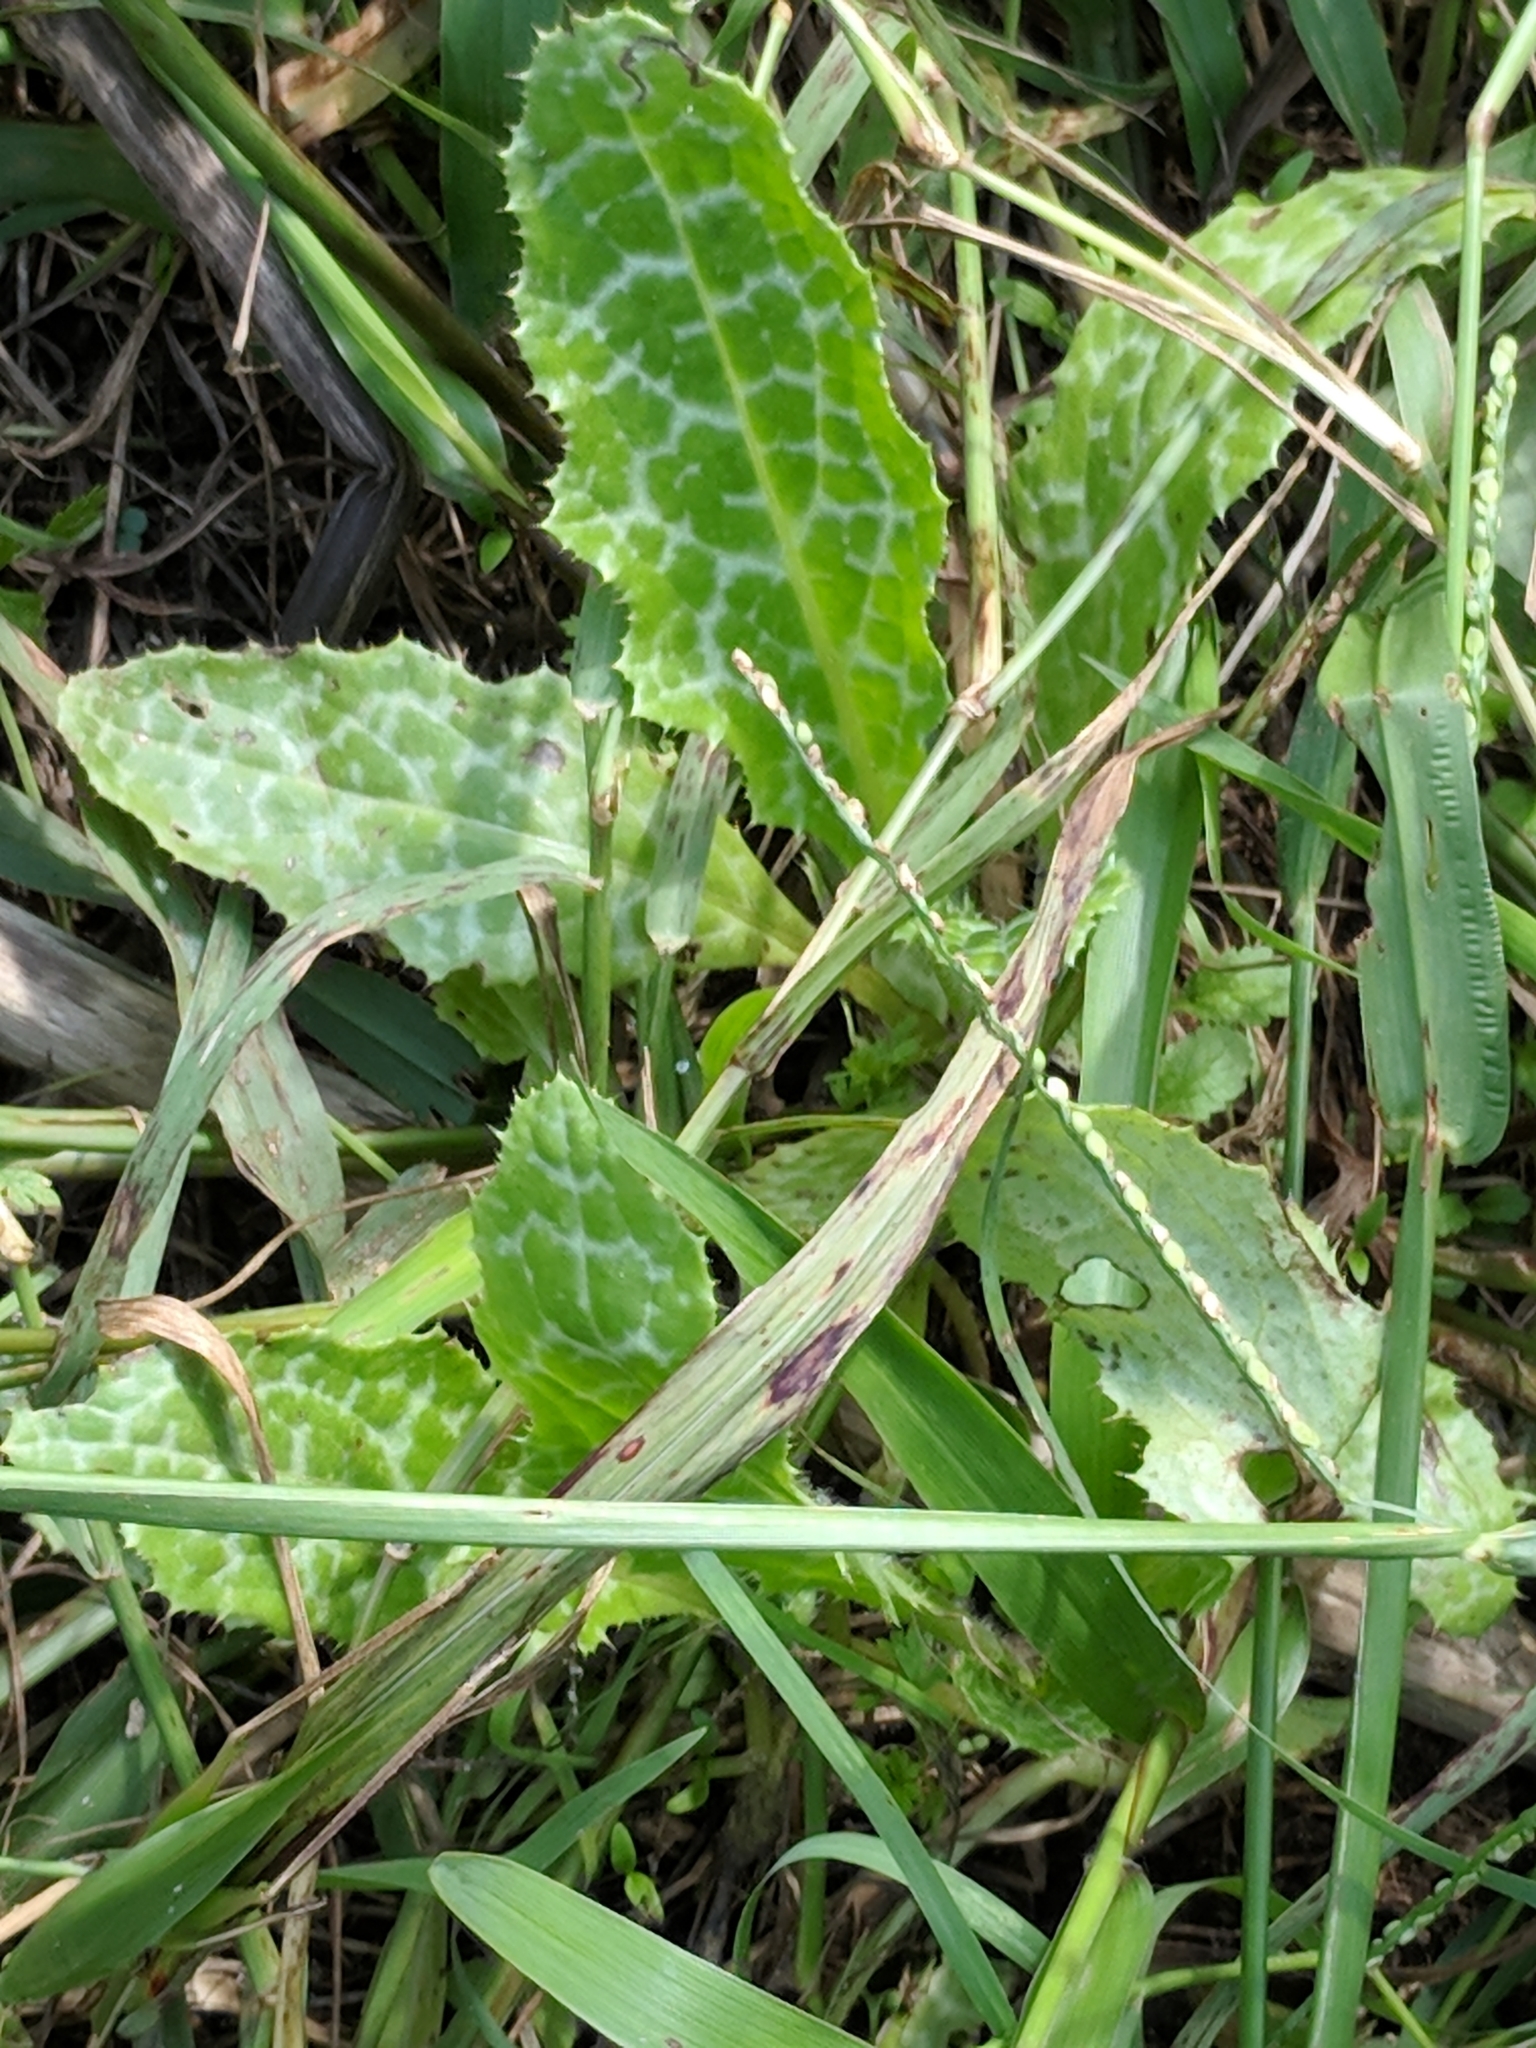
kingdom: Plantae
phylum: Tracheophyta
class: Magnoliopsida
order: Asterales
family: Asteraceae
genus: Silybum
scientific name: Silybum marianum
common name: Milk thistle
